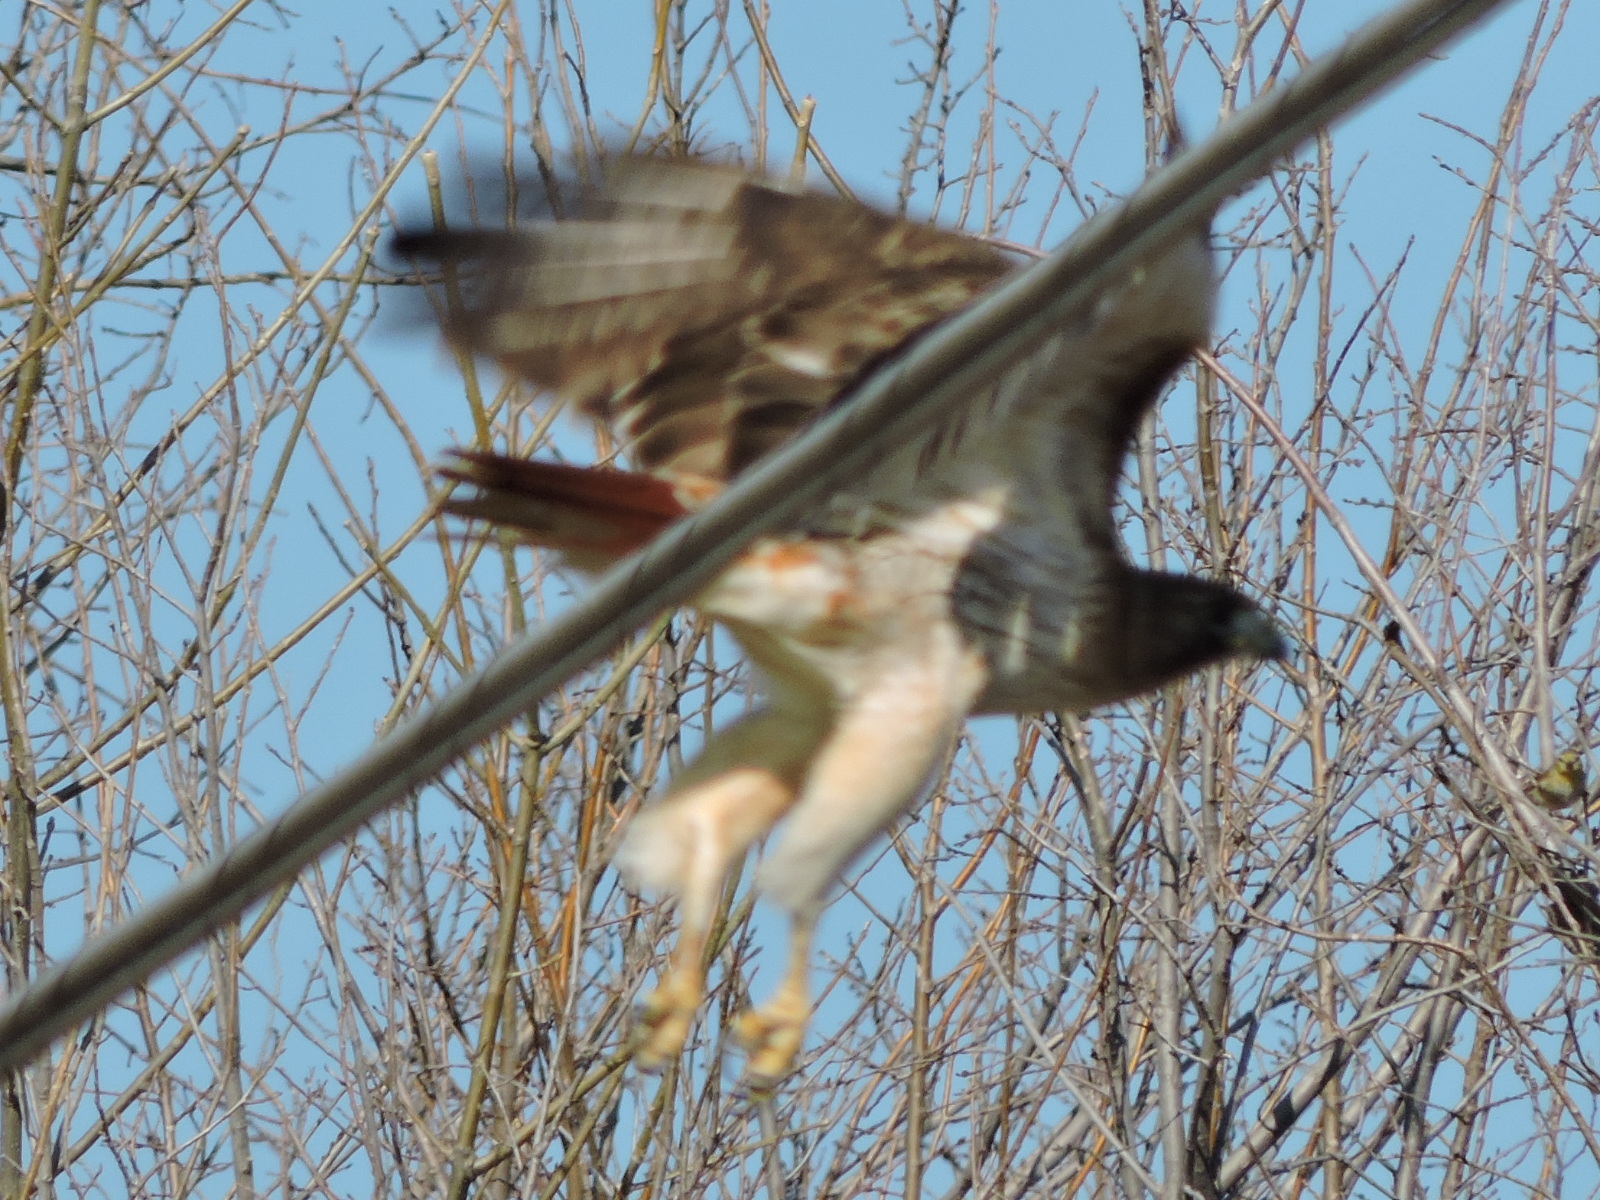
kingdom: Animalia
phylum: Chordata
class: Aves
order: Accipitriformes
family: Accipitridae
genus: Buteo
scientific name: Buteo jamaicensis
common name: Red-tailed hawk
